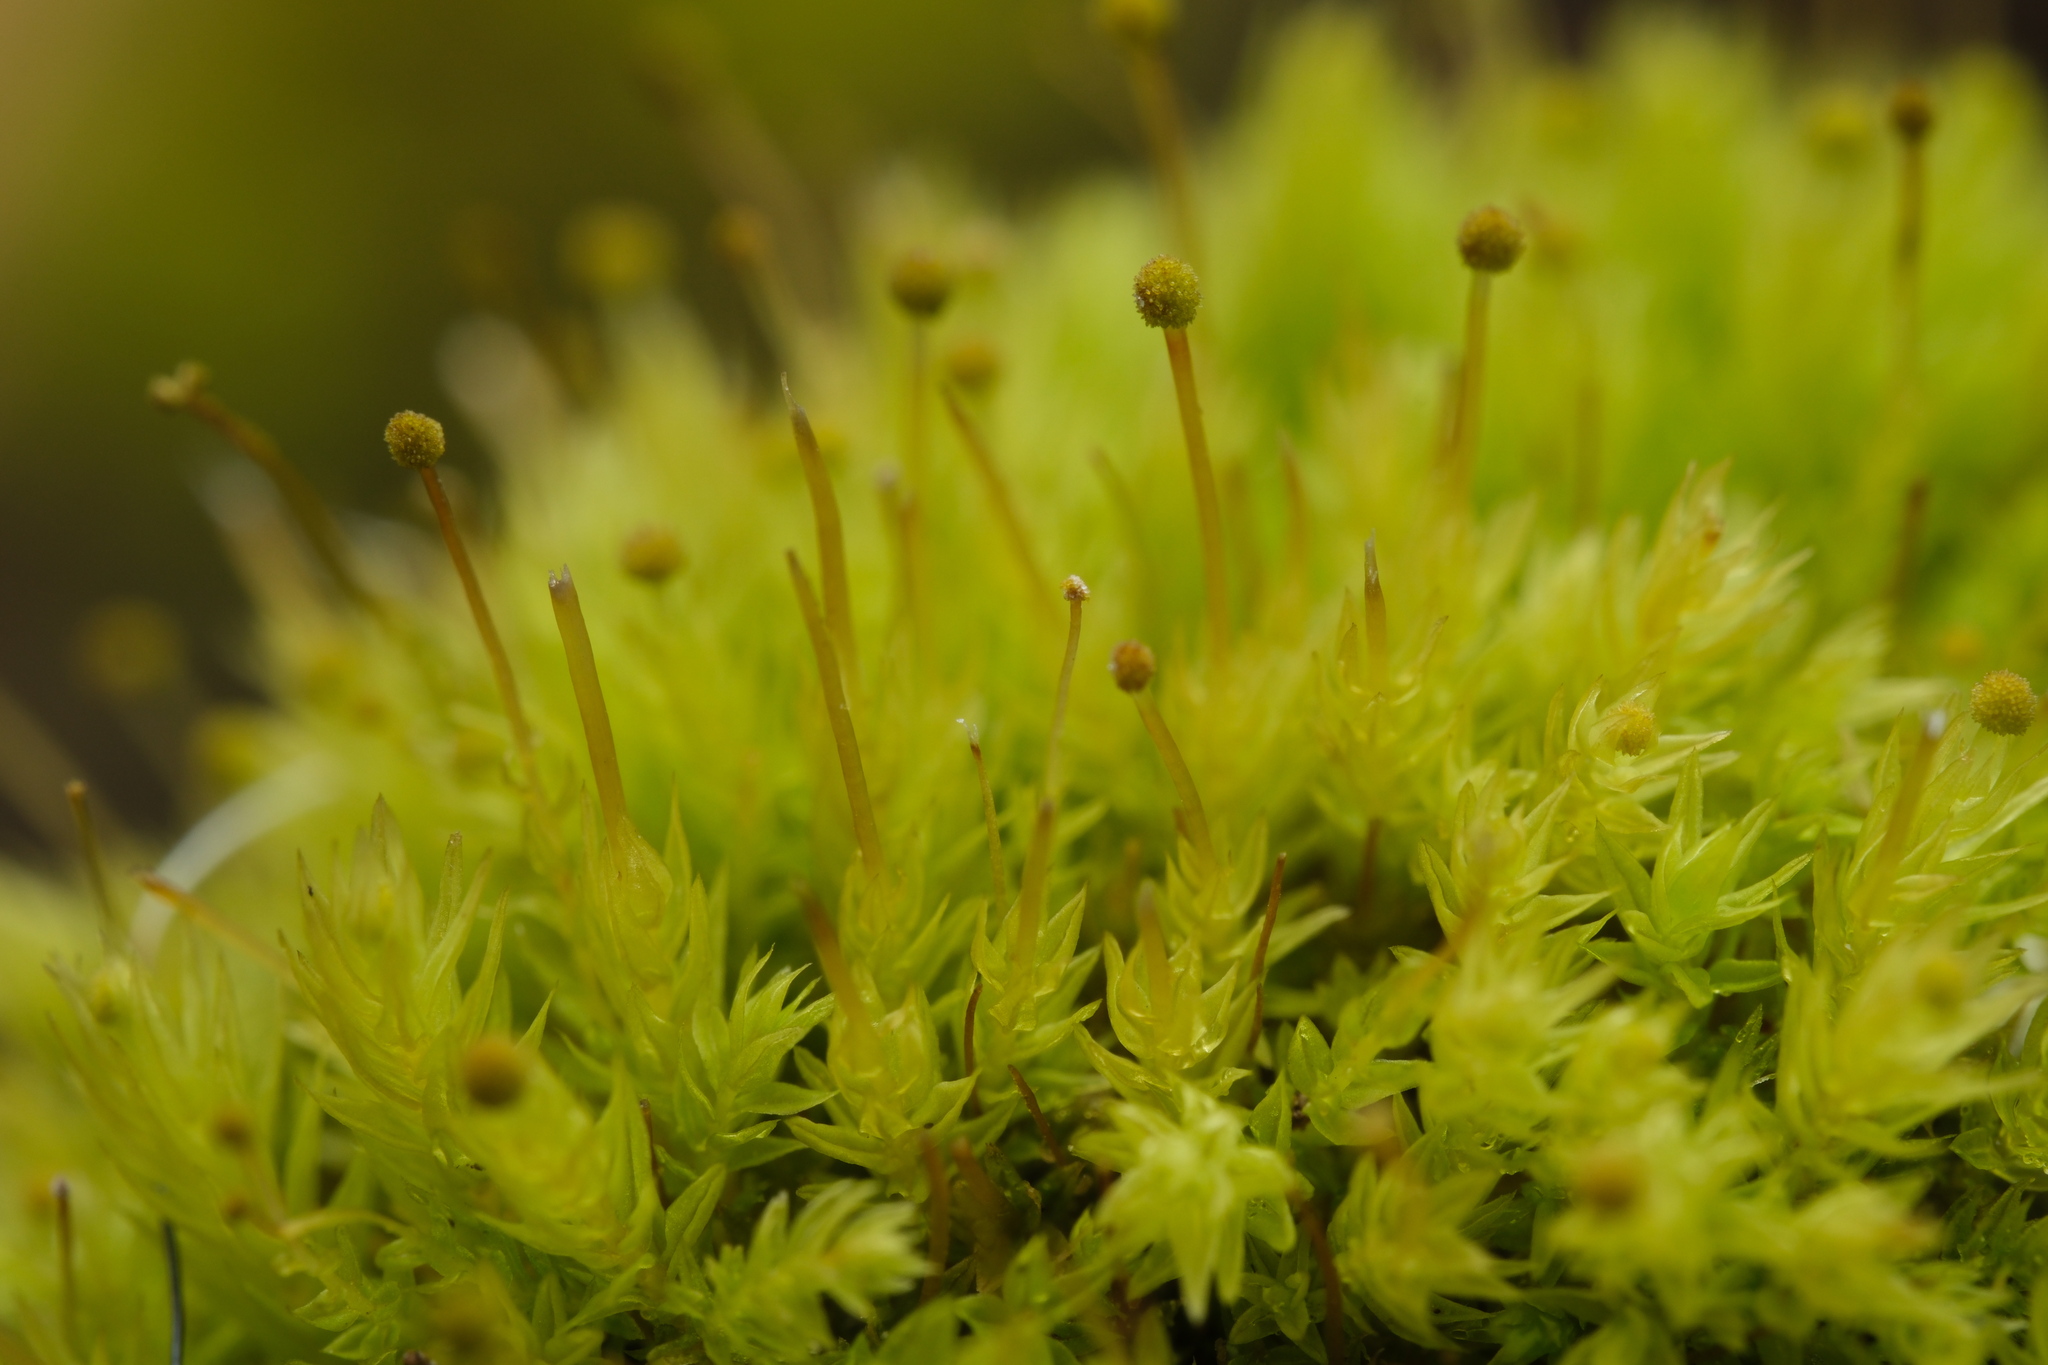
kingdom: Plantae
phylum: Bryophyta
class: Bryopsida
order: Aulacomniales
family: Aulacomniaceae
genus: Aulacomnium
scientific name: Aulacomnium androgynum
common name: Little groove moss
